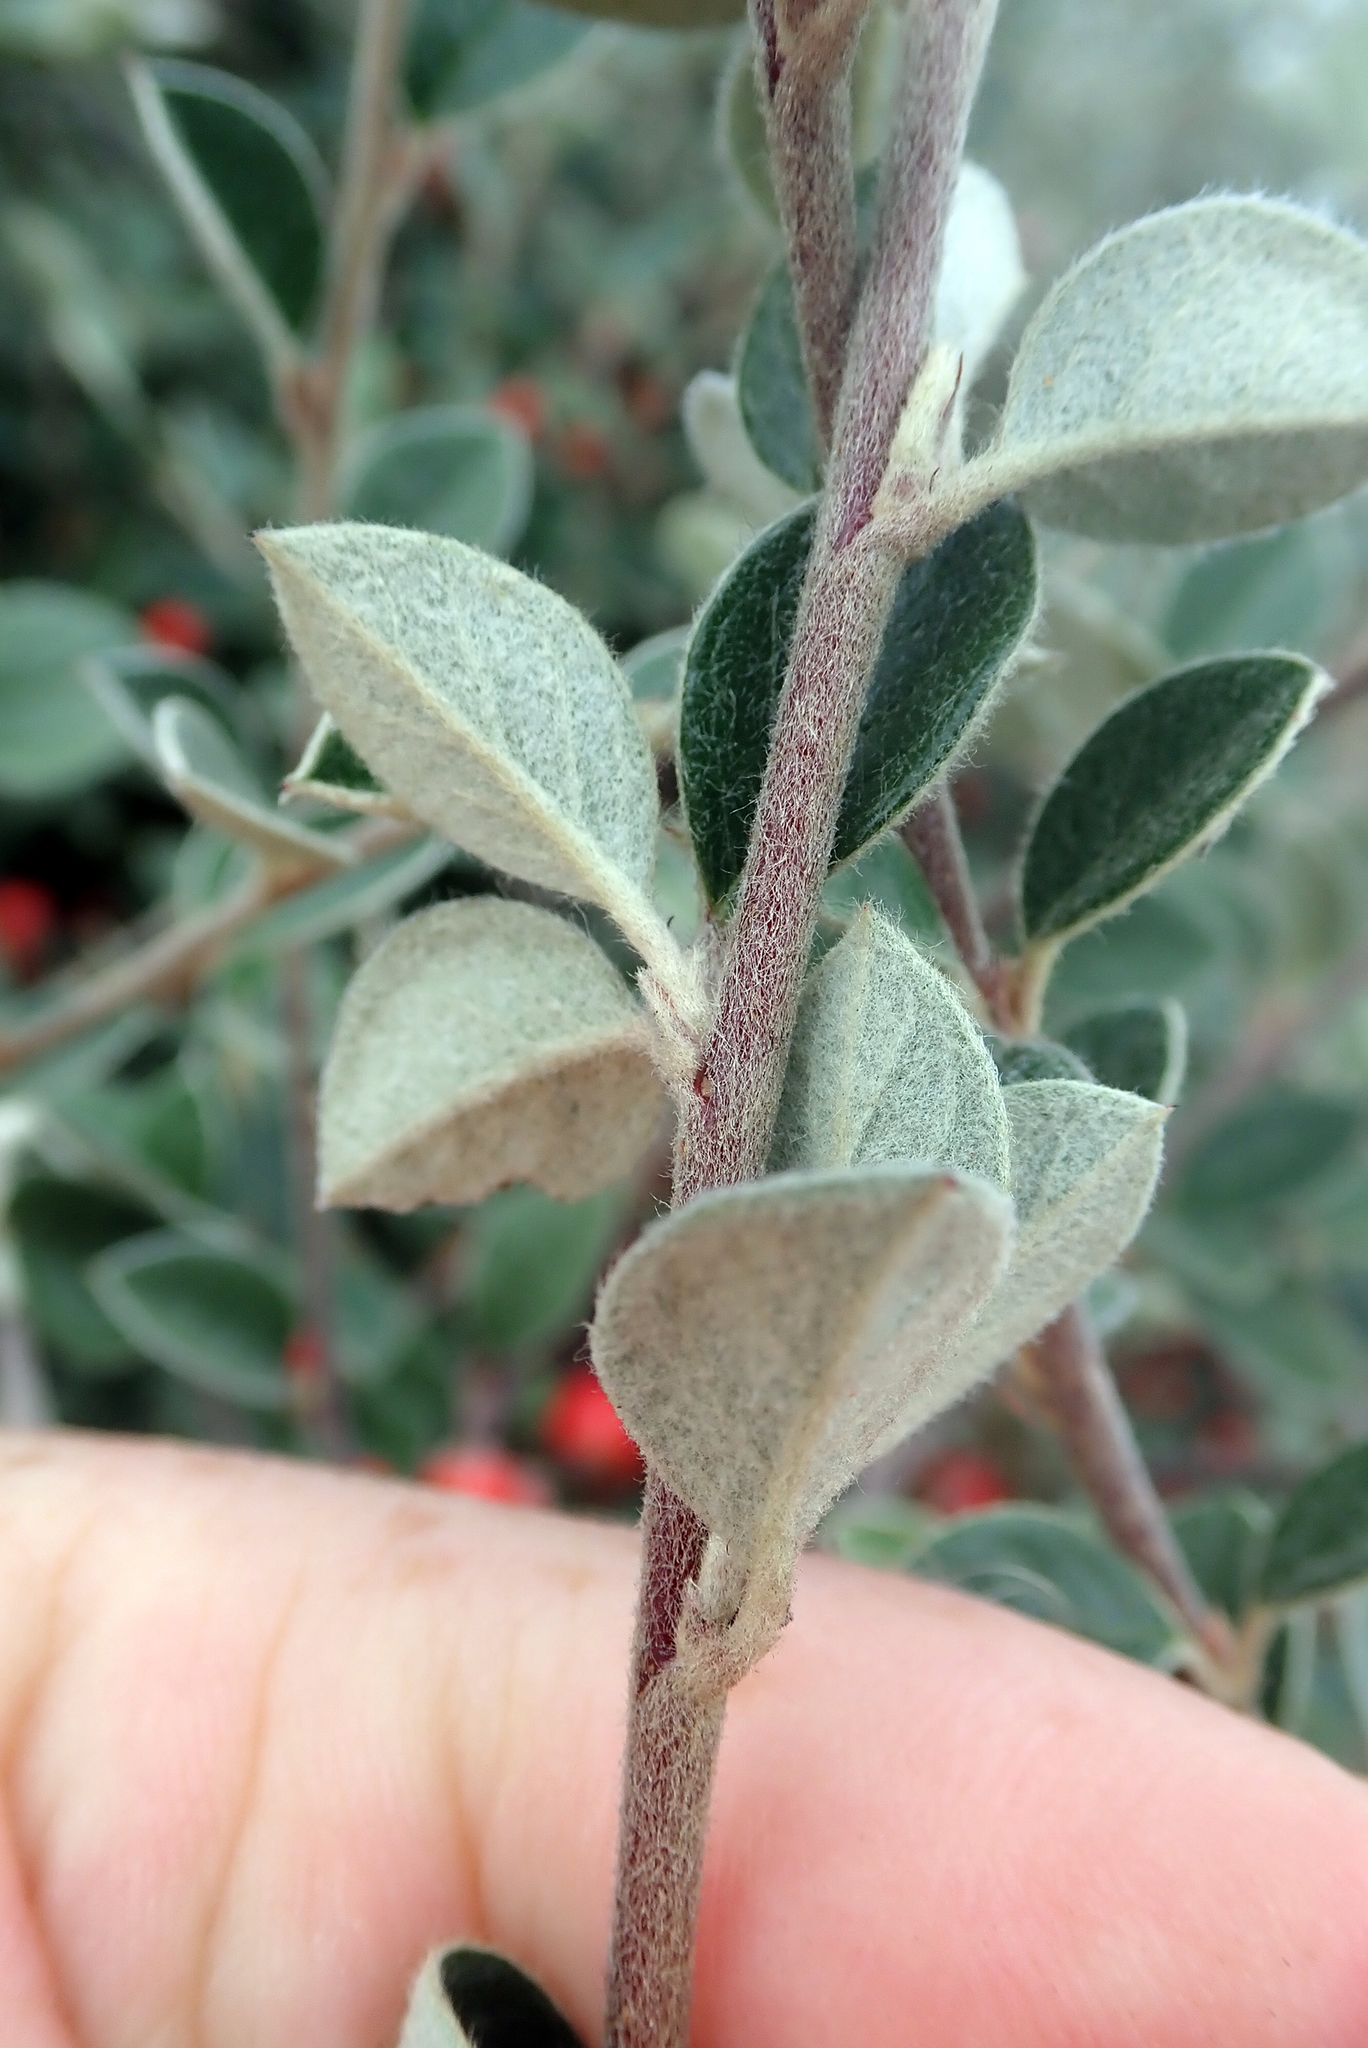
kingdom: Plantae
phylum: Tracheophyta
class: Magnoliopsida
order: Rosales
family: Rosaceae
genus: Cotoneaster
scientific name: Cotoneaster franchetii
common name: Franchet's cotoneaster
